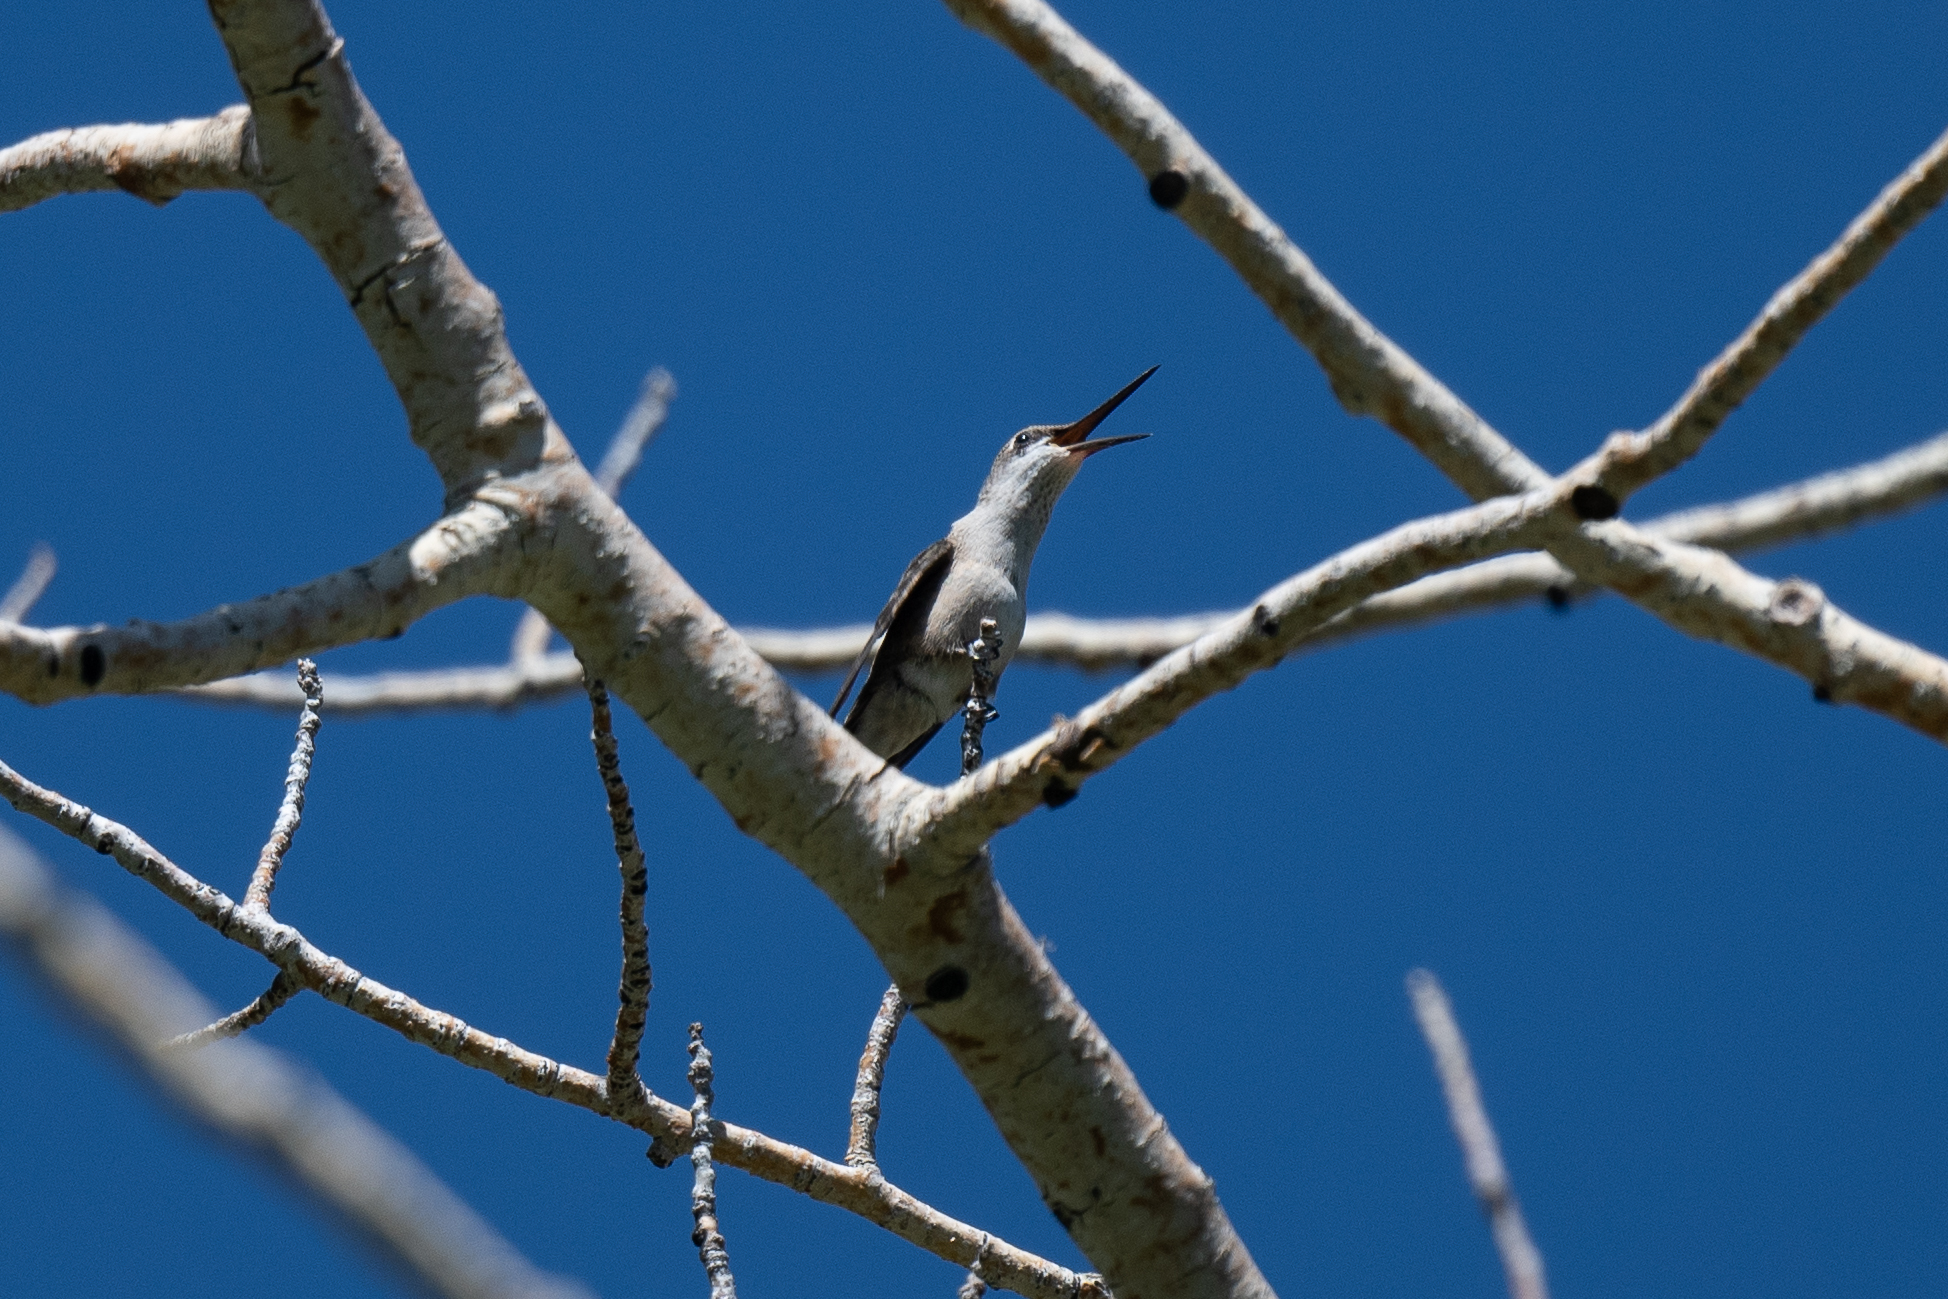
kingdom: Animalia
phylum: Chordata
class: Aves
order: Apodiformes
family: Trochilidae
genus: Selasphorus
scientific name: Selasphorus platycercus
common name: Broad-tailed hummingbird
